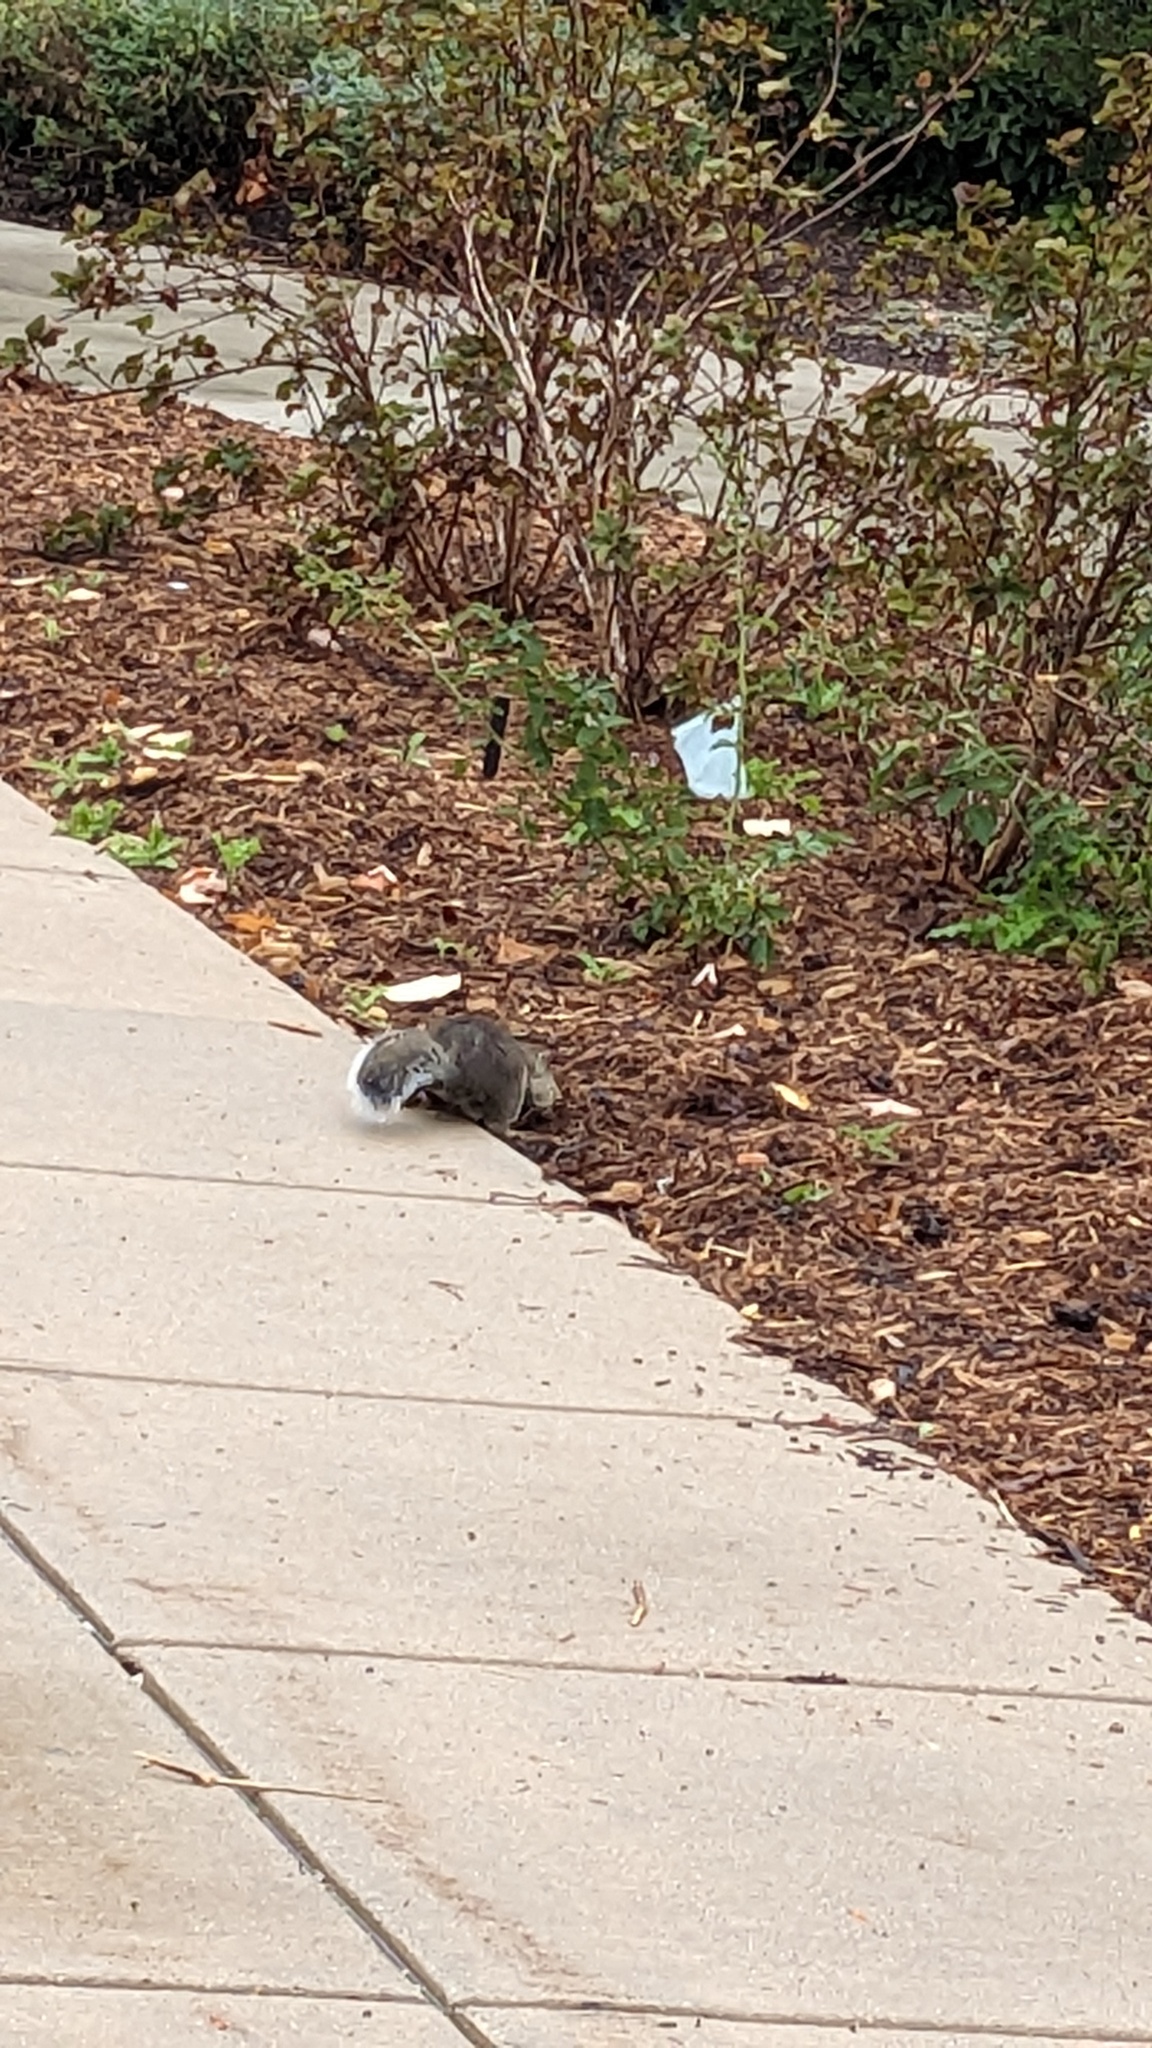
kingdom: Animalia
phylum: Chordata
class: Mammalia
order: Rodentia
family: Sciuridae
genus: Sciurus
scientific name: Sciurus carolinensis
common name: Eastern gray squirrel
